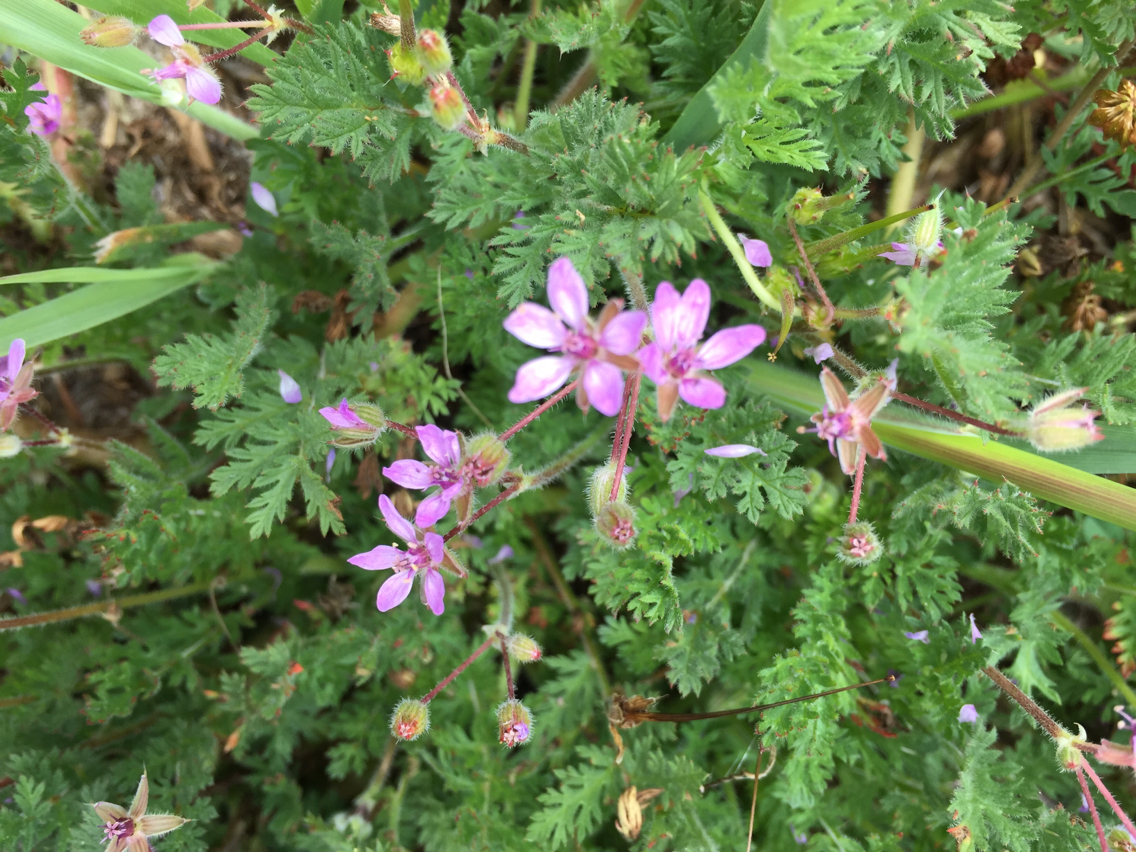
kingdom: Plantae
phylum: Tracheophyta
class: Magnoliopsida
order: Geraniales
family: Geraniaceae
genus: Erodium
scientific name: Erodium cicutarium
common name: Common stork's-bill
